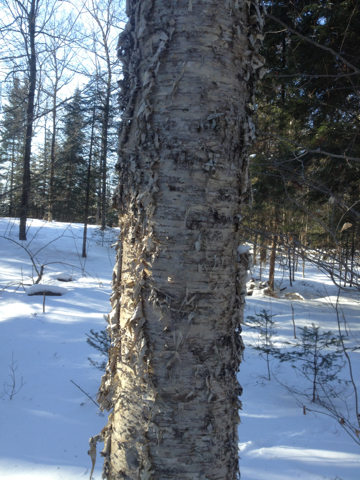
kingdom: Plantae
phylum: Tracheophyta
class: Magnoliopsida
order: Fagales
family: Betulaceae
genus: Betula
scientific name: Betula alleghaniensis
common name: Yellow birch
